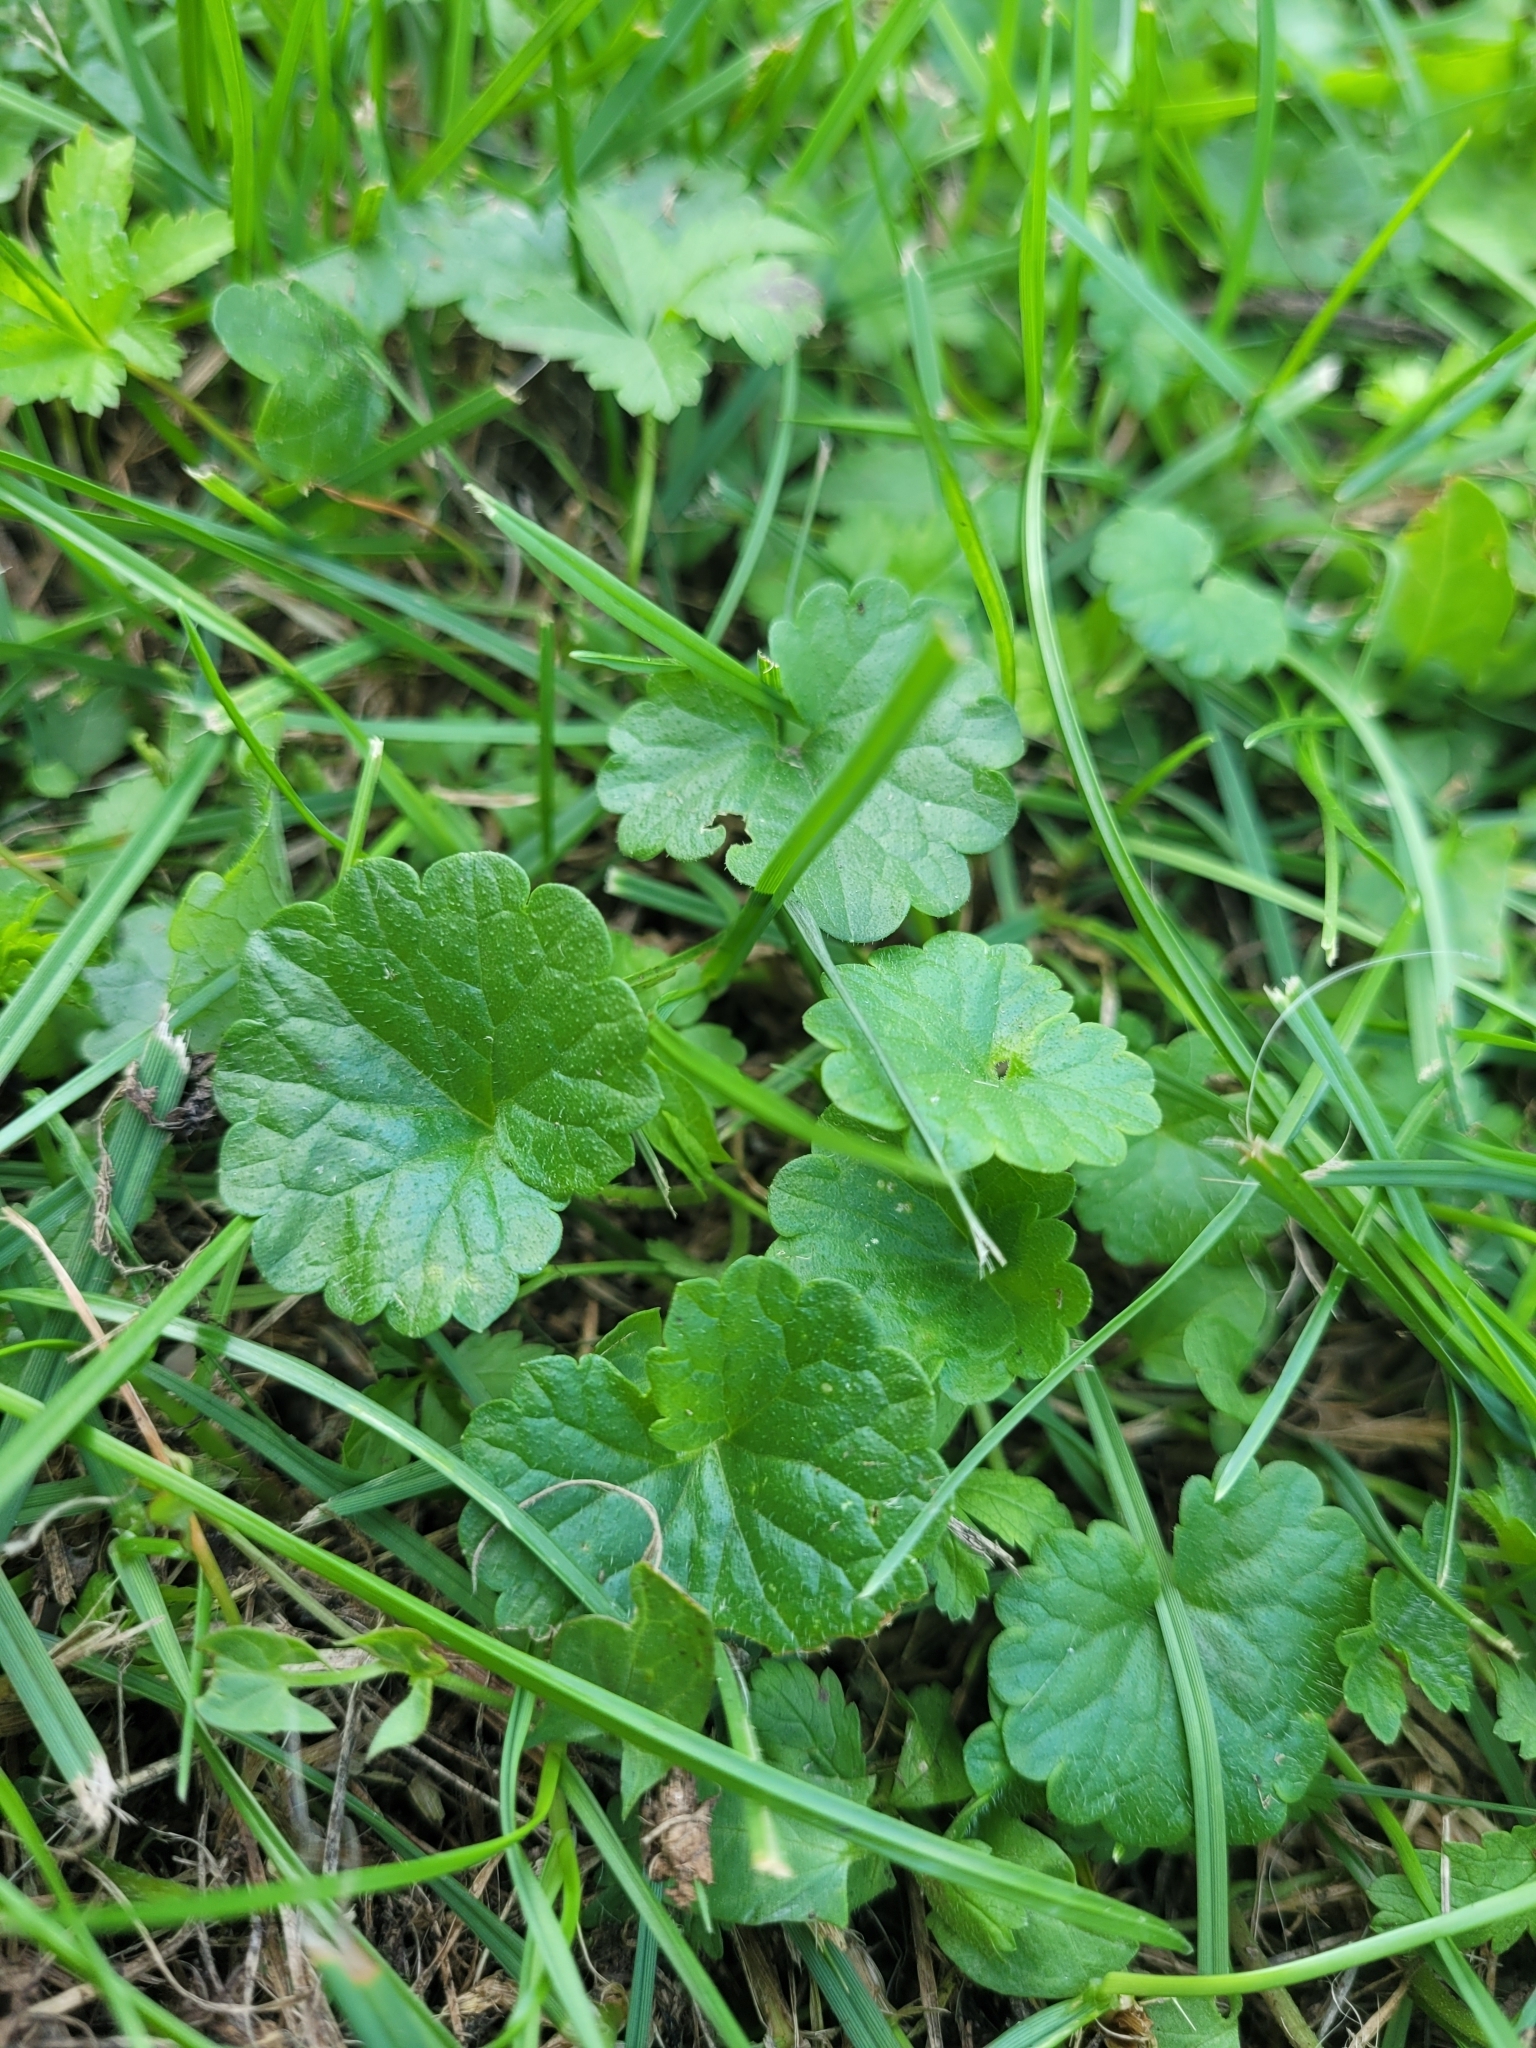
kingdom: Plantae
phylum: Tracheophyta
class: Magnoliopsida
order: Lamiales
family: Lamiaceae
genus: Glechoma
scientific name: Glechoma hederacea
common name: Ground ivy
